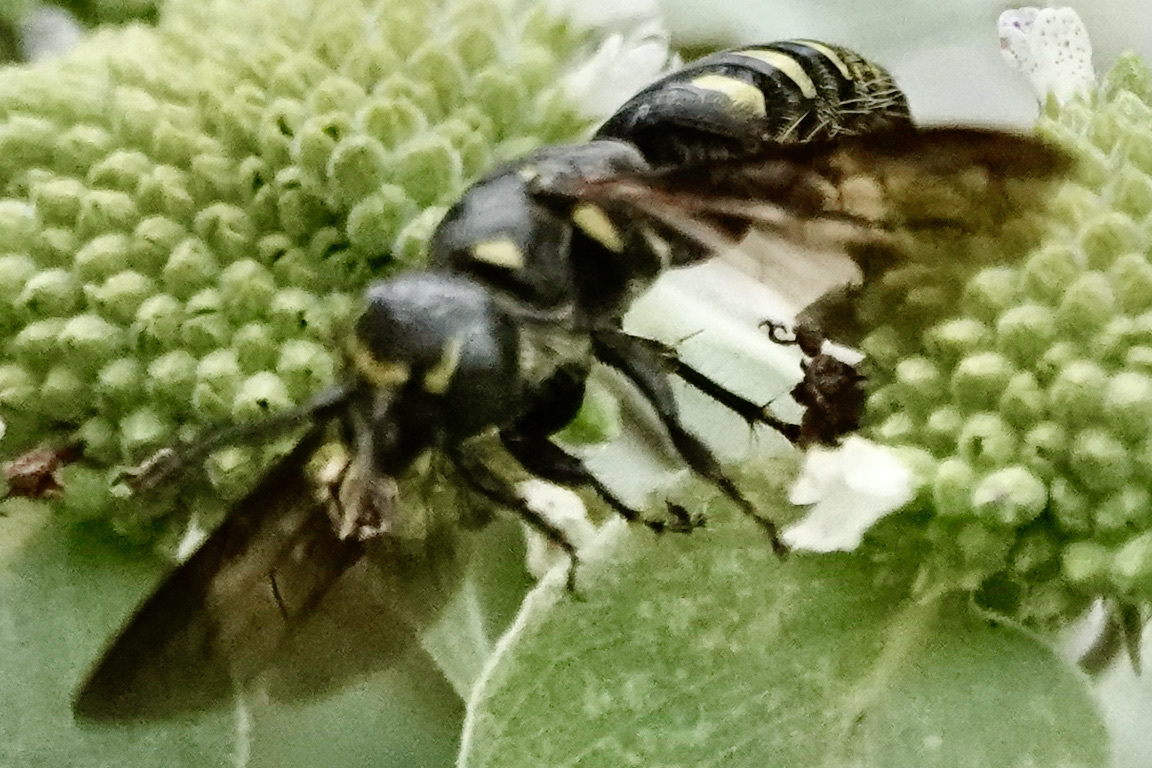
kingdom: Animalia
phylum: Arthropoda
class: Insecta
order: Hymenoptera
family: Tiphiidae
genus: Myzinum
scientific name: Myzinum obscurum
